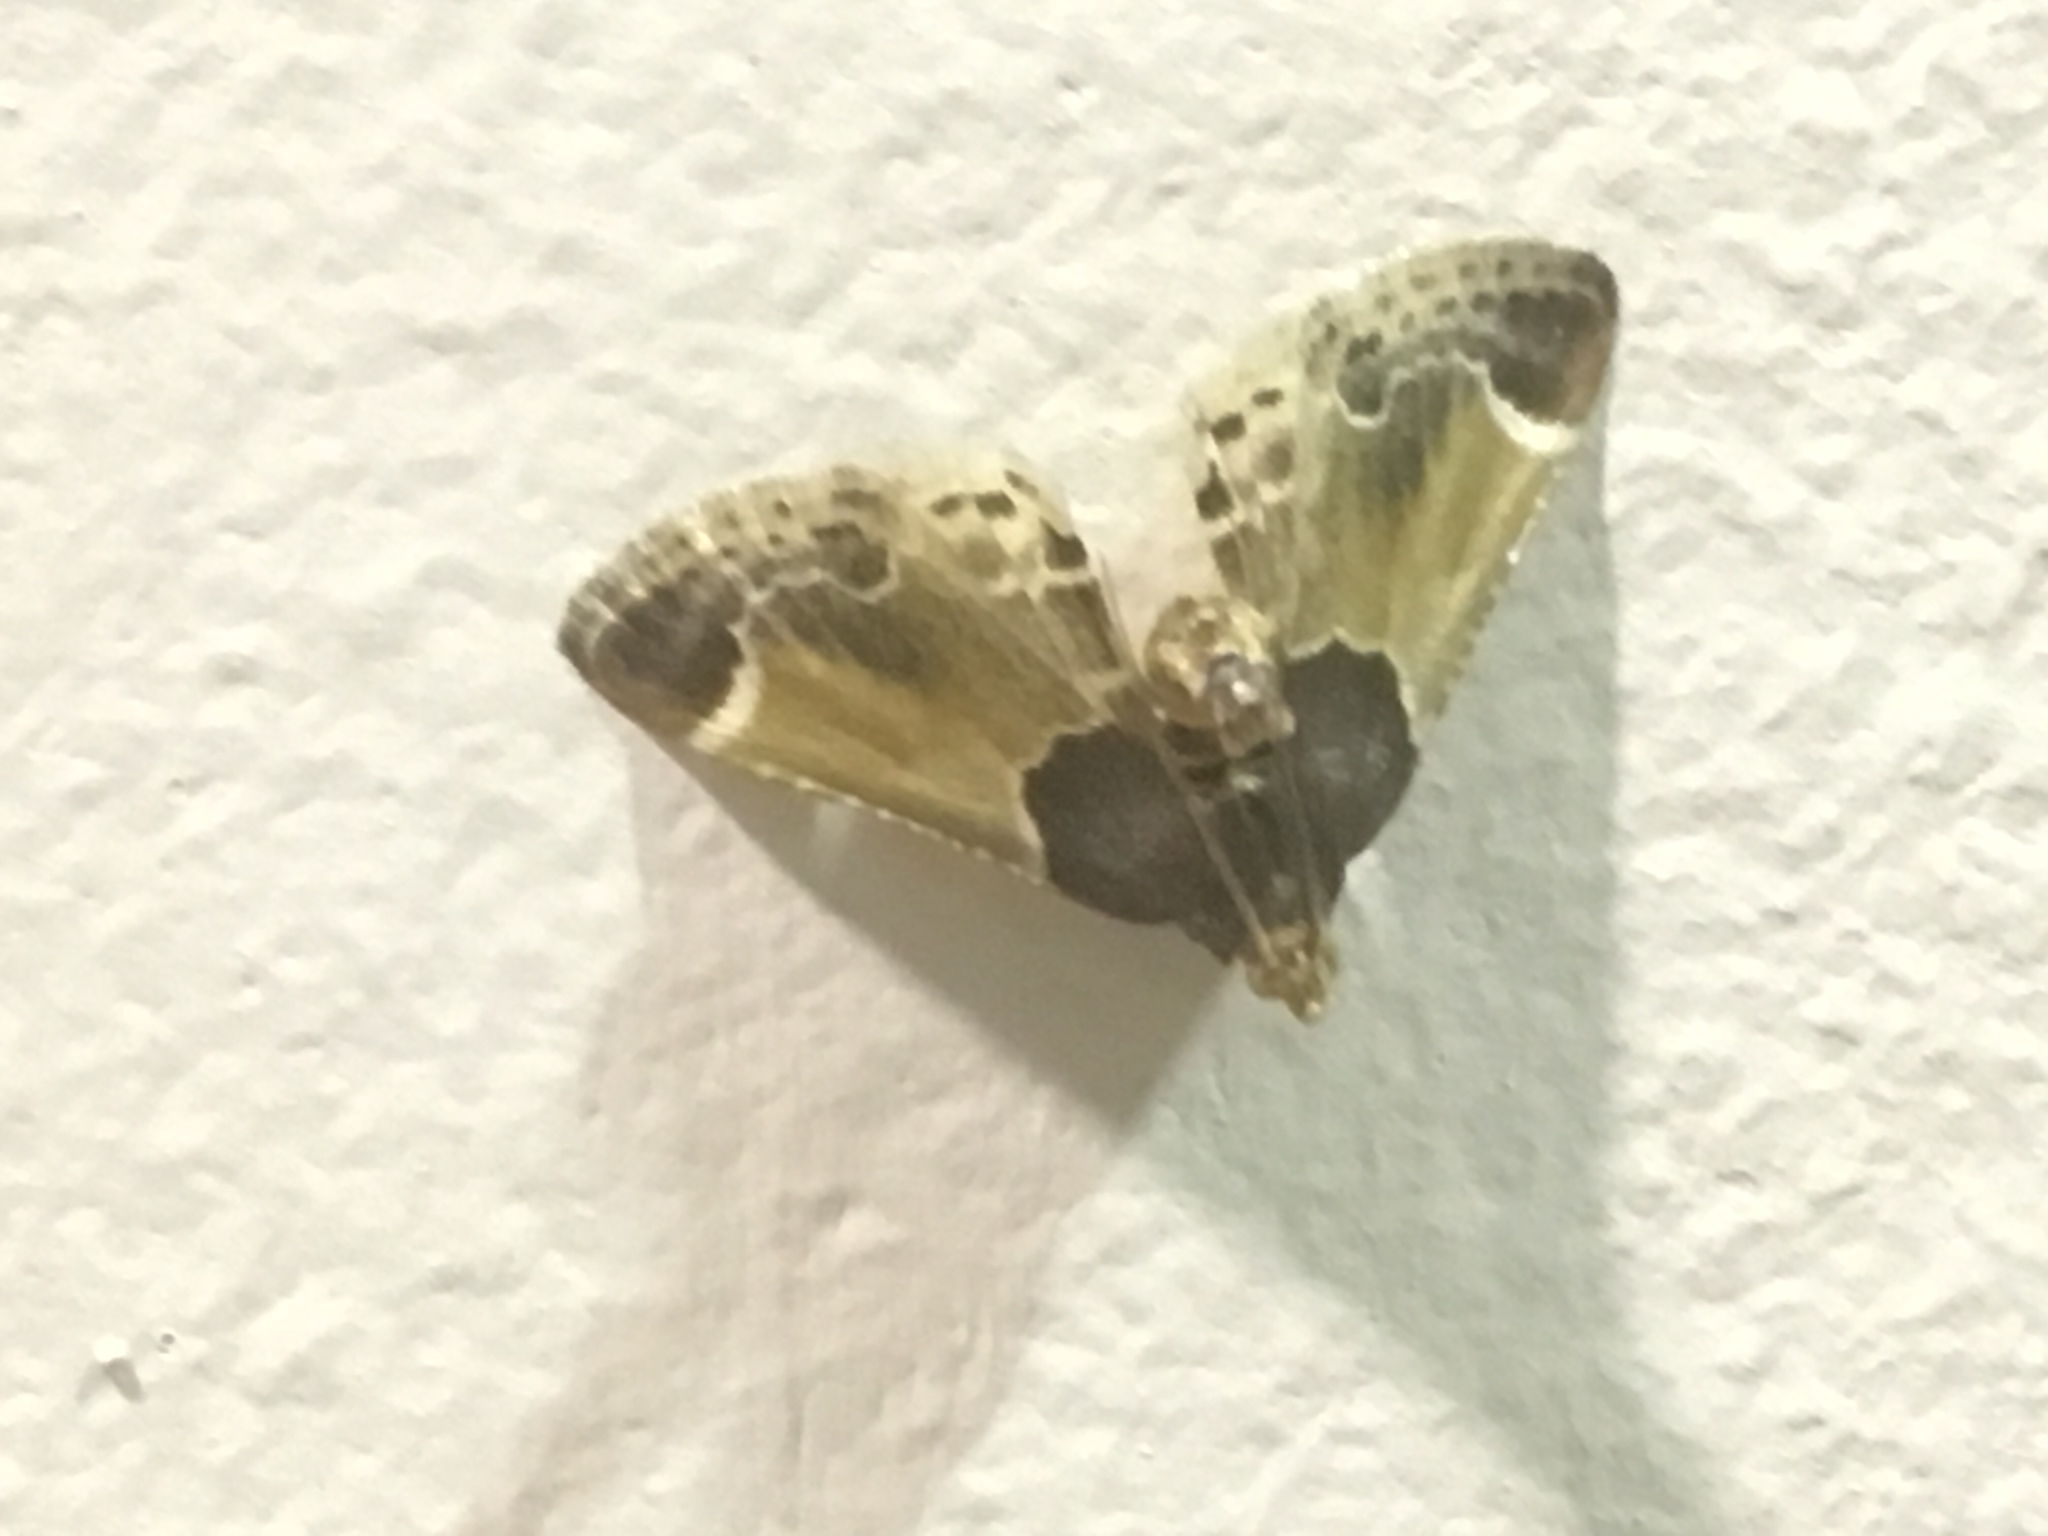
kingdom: Animalia
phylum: Arthropoda
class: Insecta
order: Lepidoptera
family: Pyralidae
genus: Pyralis
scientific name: Pyralis farinalis
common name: Meal moth
